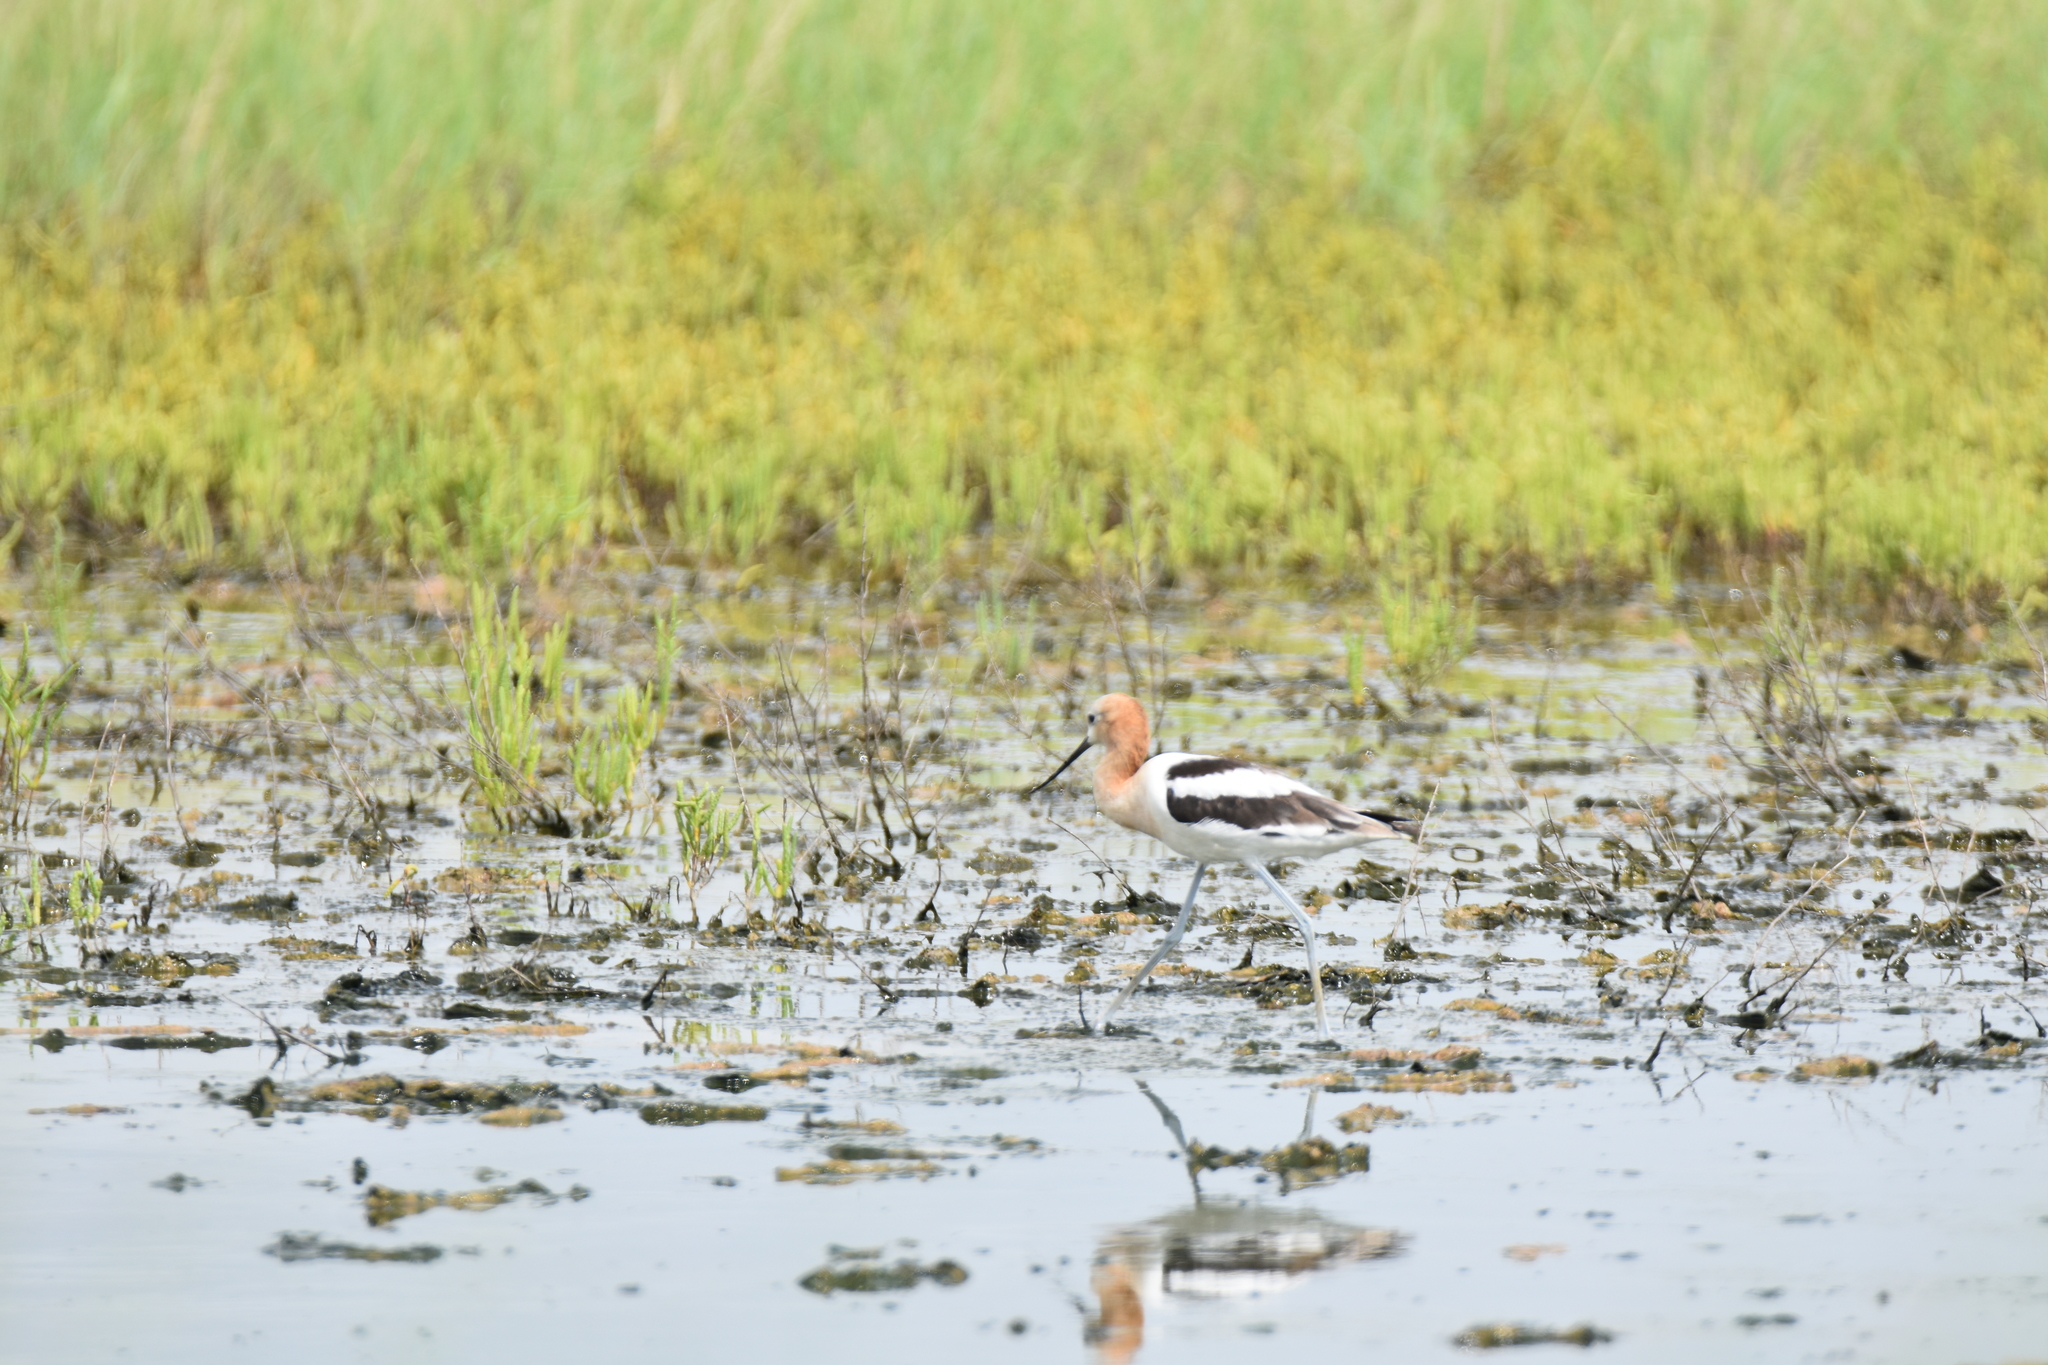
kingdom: Animalia
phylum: Chordata
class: Aves
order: Charadriiformes
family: Recurvirostridae
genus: Recurvirostra
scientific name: Recurvirostra americana
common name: American avocet
